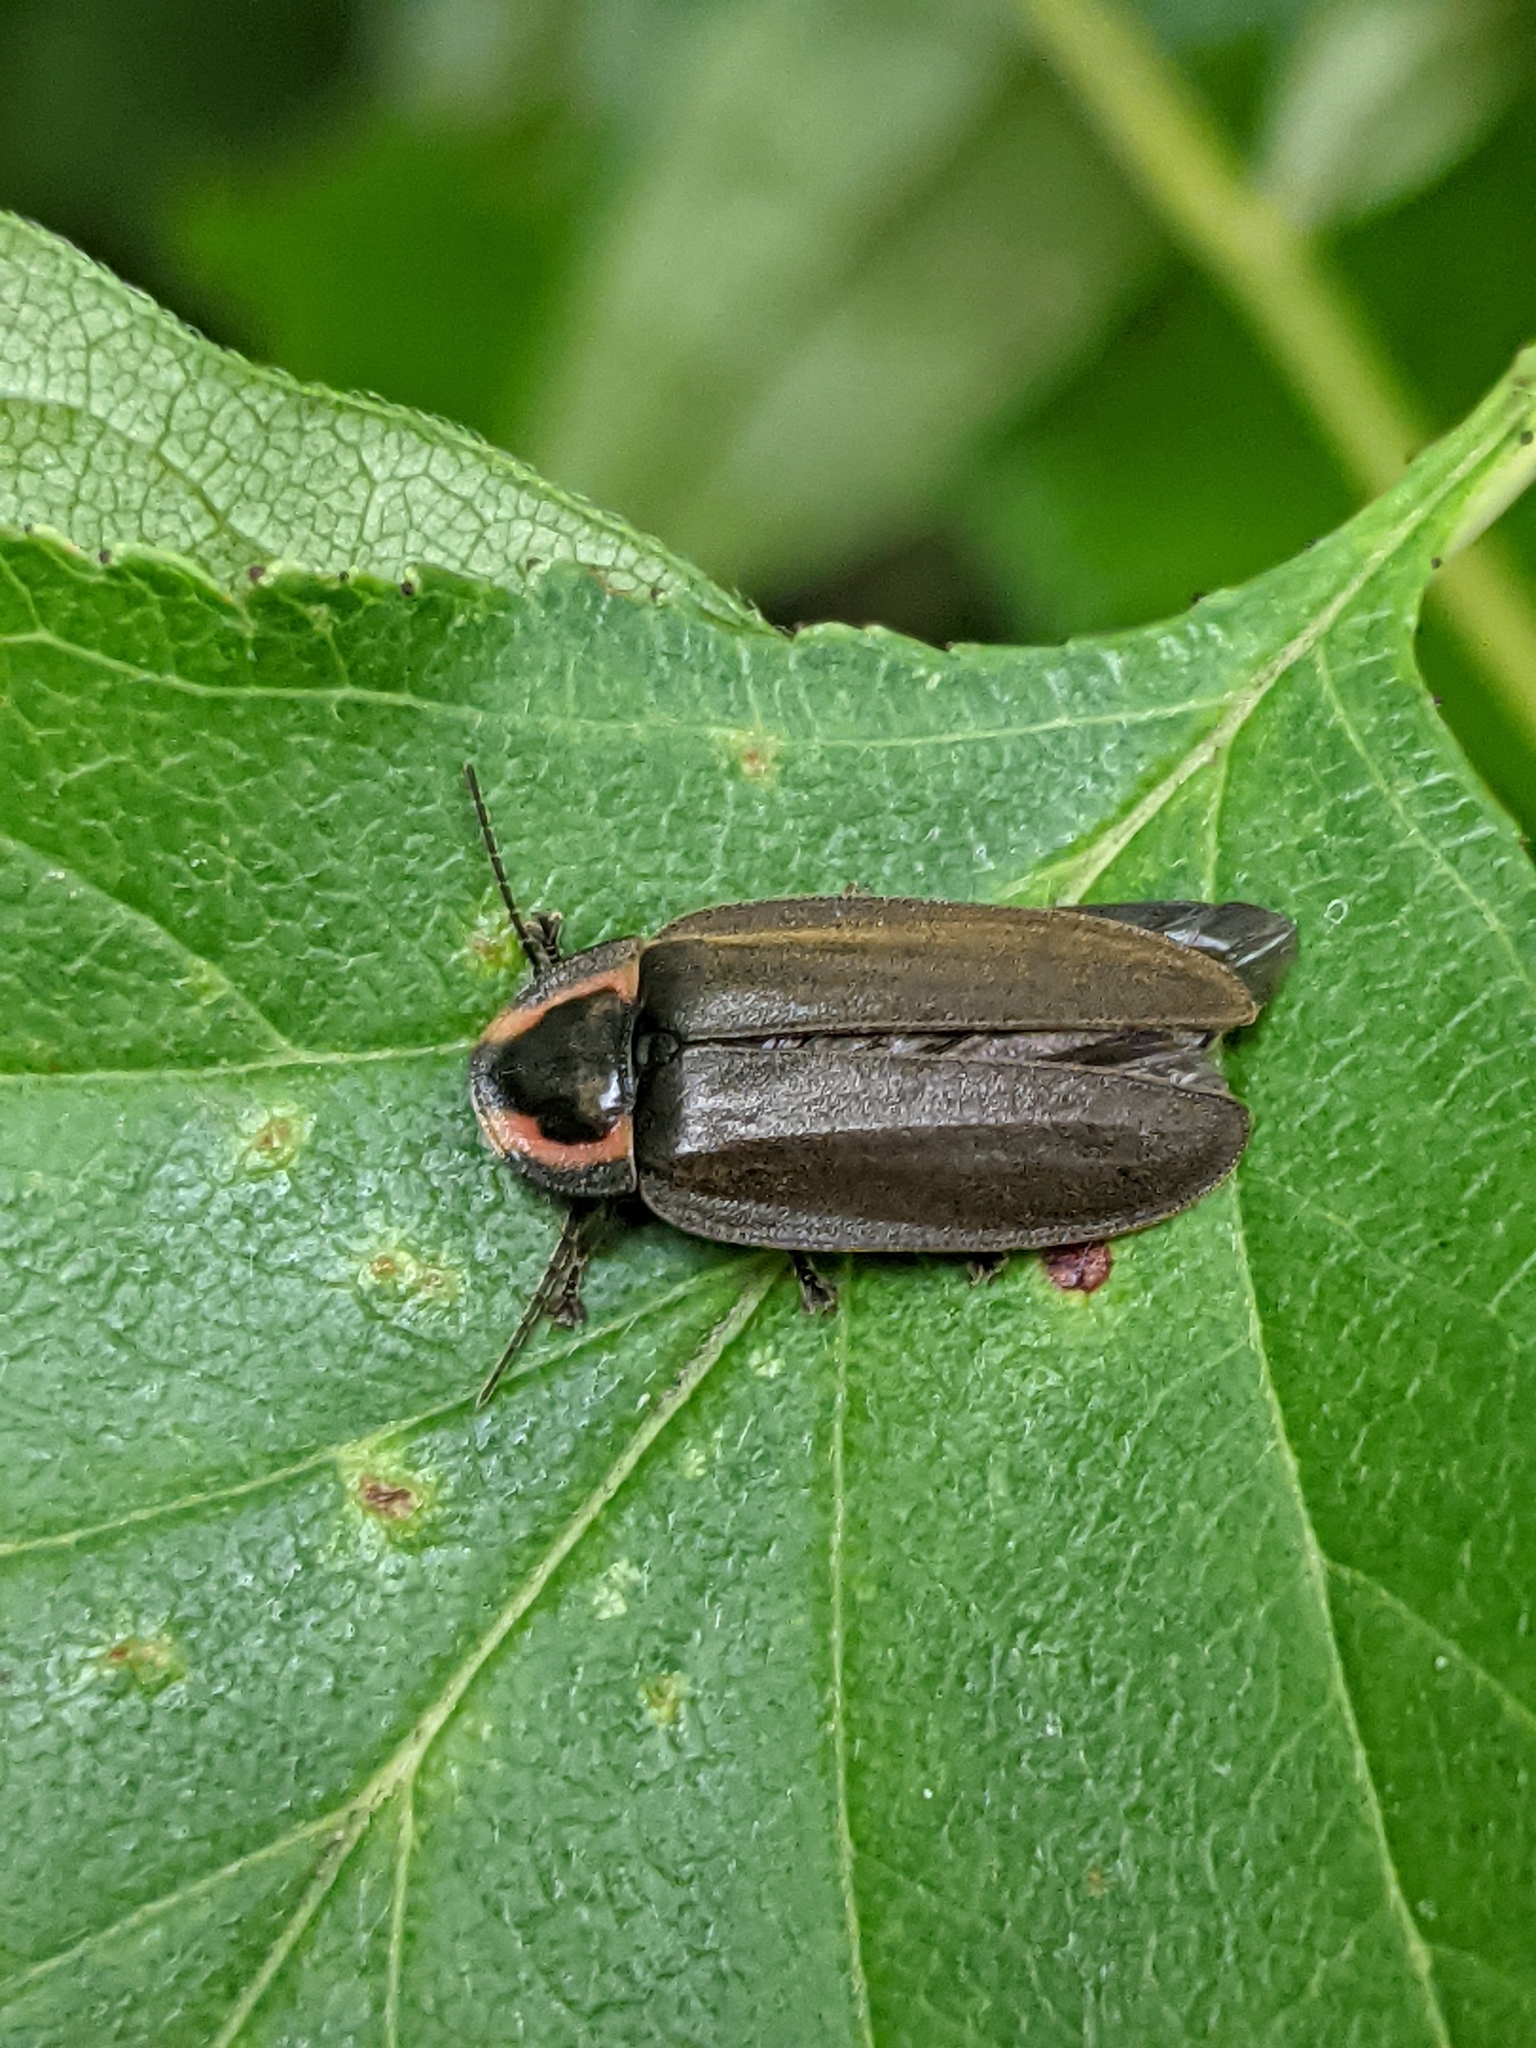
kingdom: Animalia
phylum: Arthropoda
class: Insecta
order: Coleoptera
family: Lampyridae
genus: Photinus
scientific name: Photinus corrusca
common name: Winter firefly
